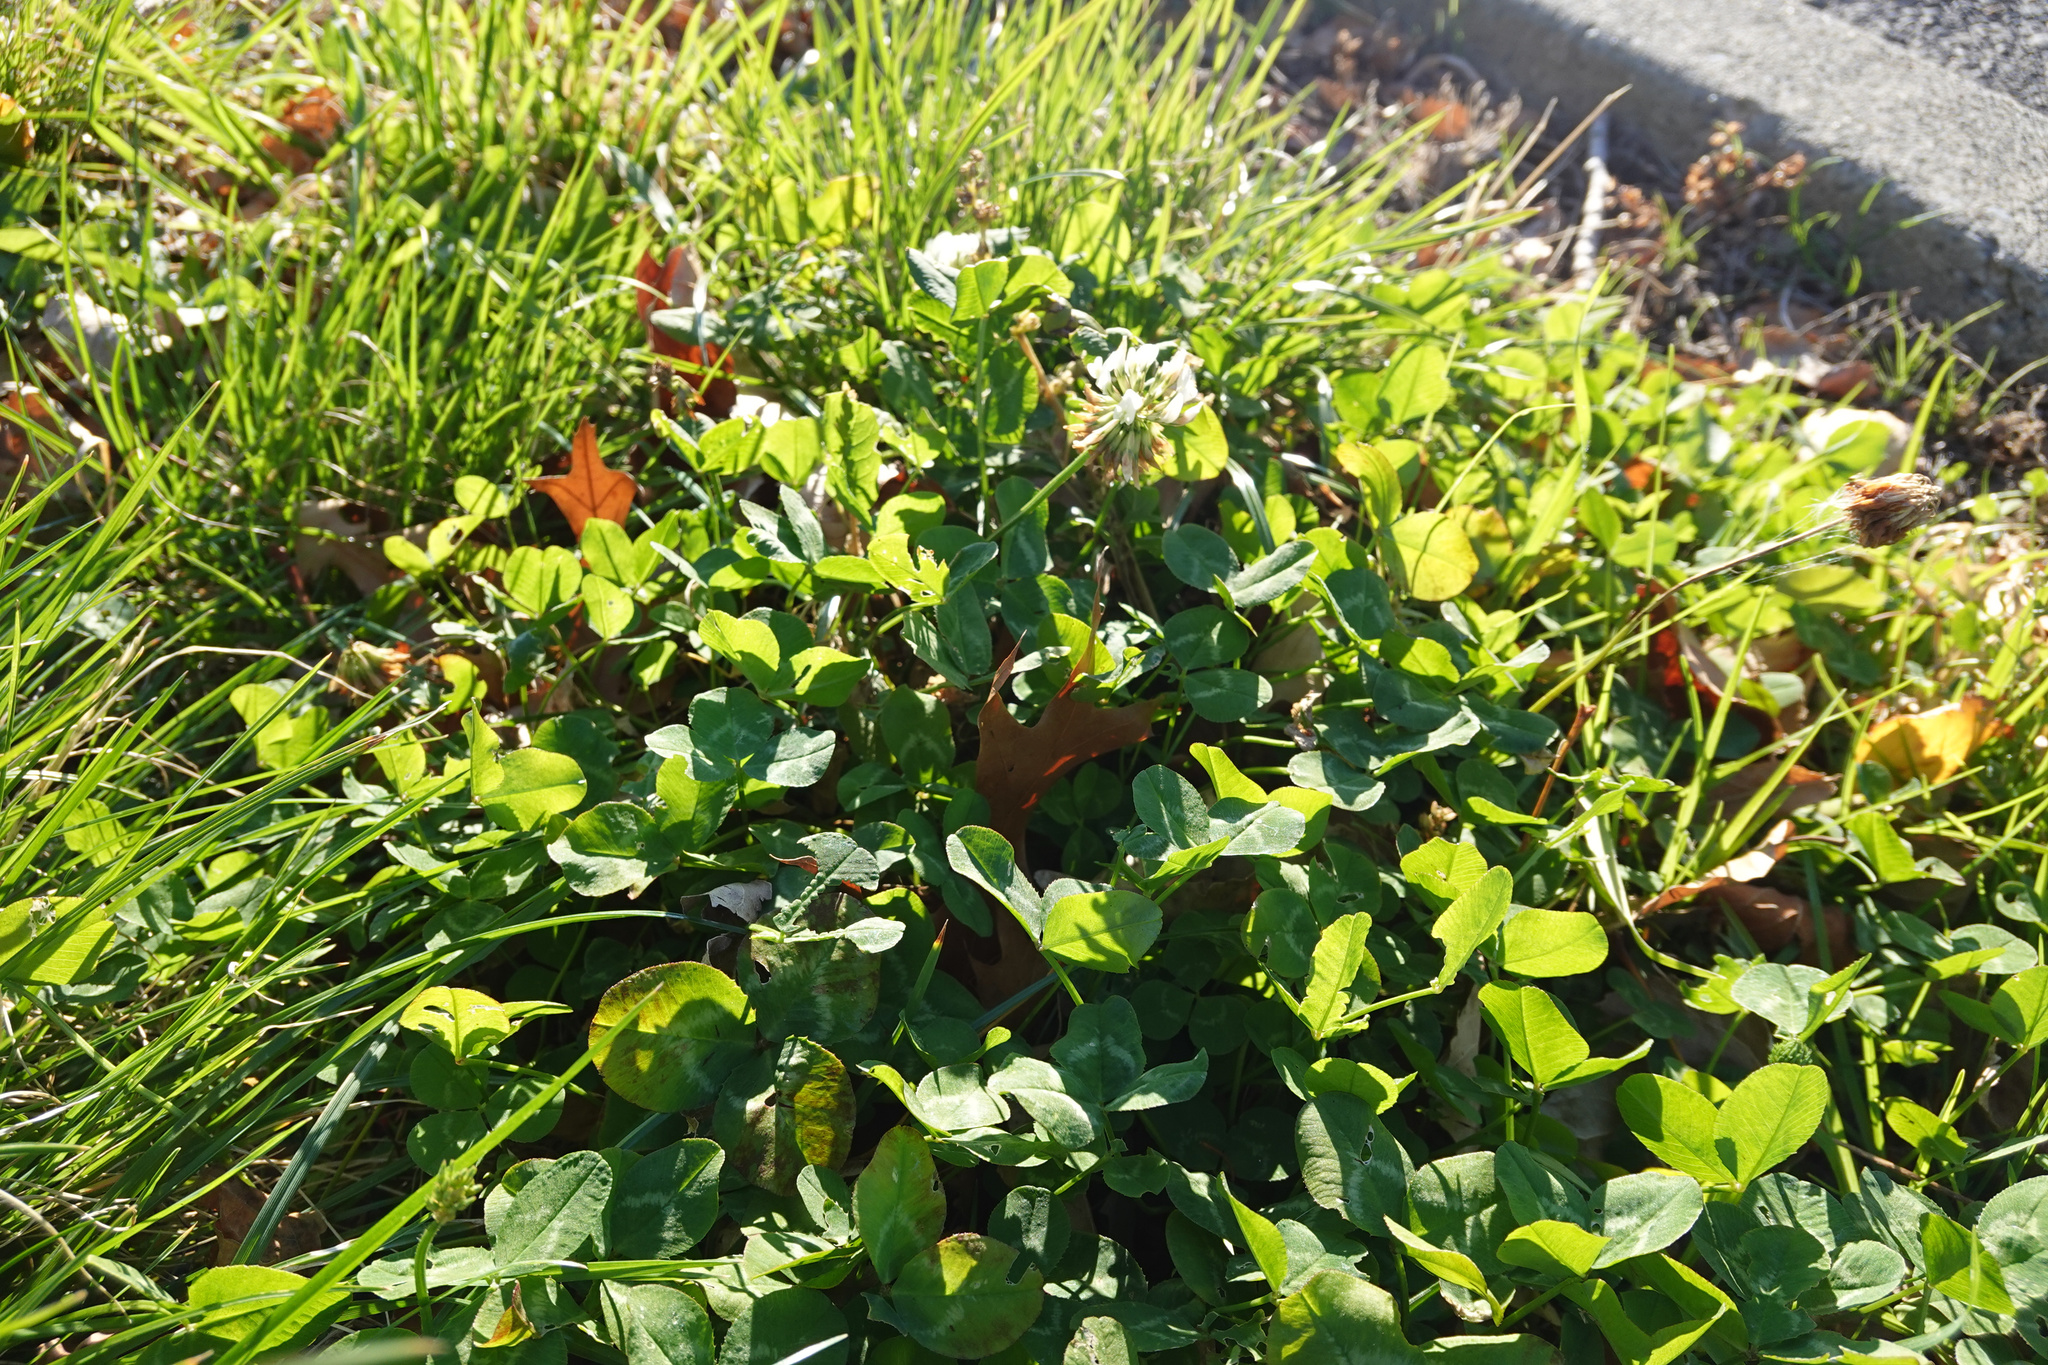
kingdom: Plantae
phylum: Tracheophyta
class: Magnoliopsida
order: Fabales
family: Fabaceae
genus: Trifolium
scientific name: Trifolium repens
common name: White clover
